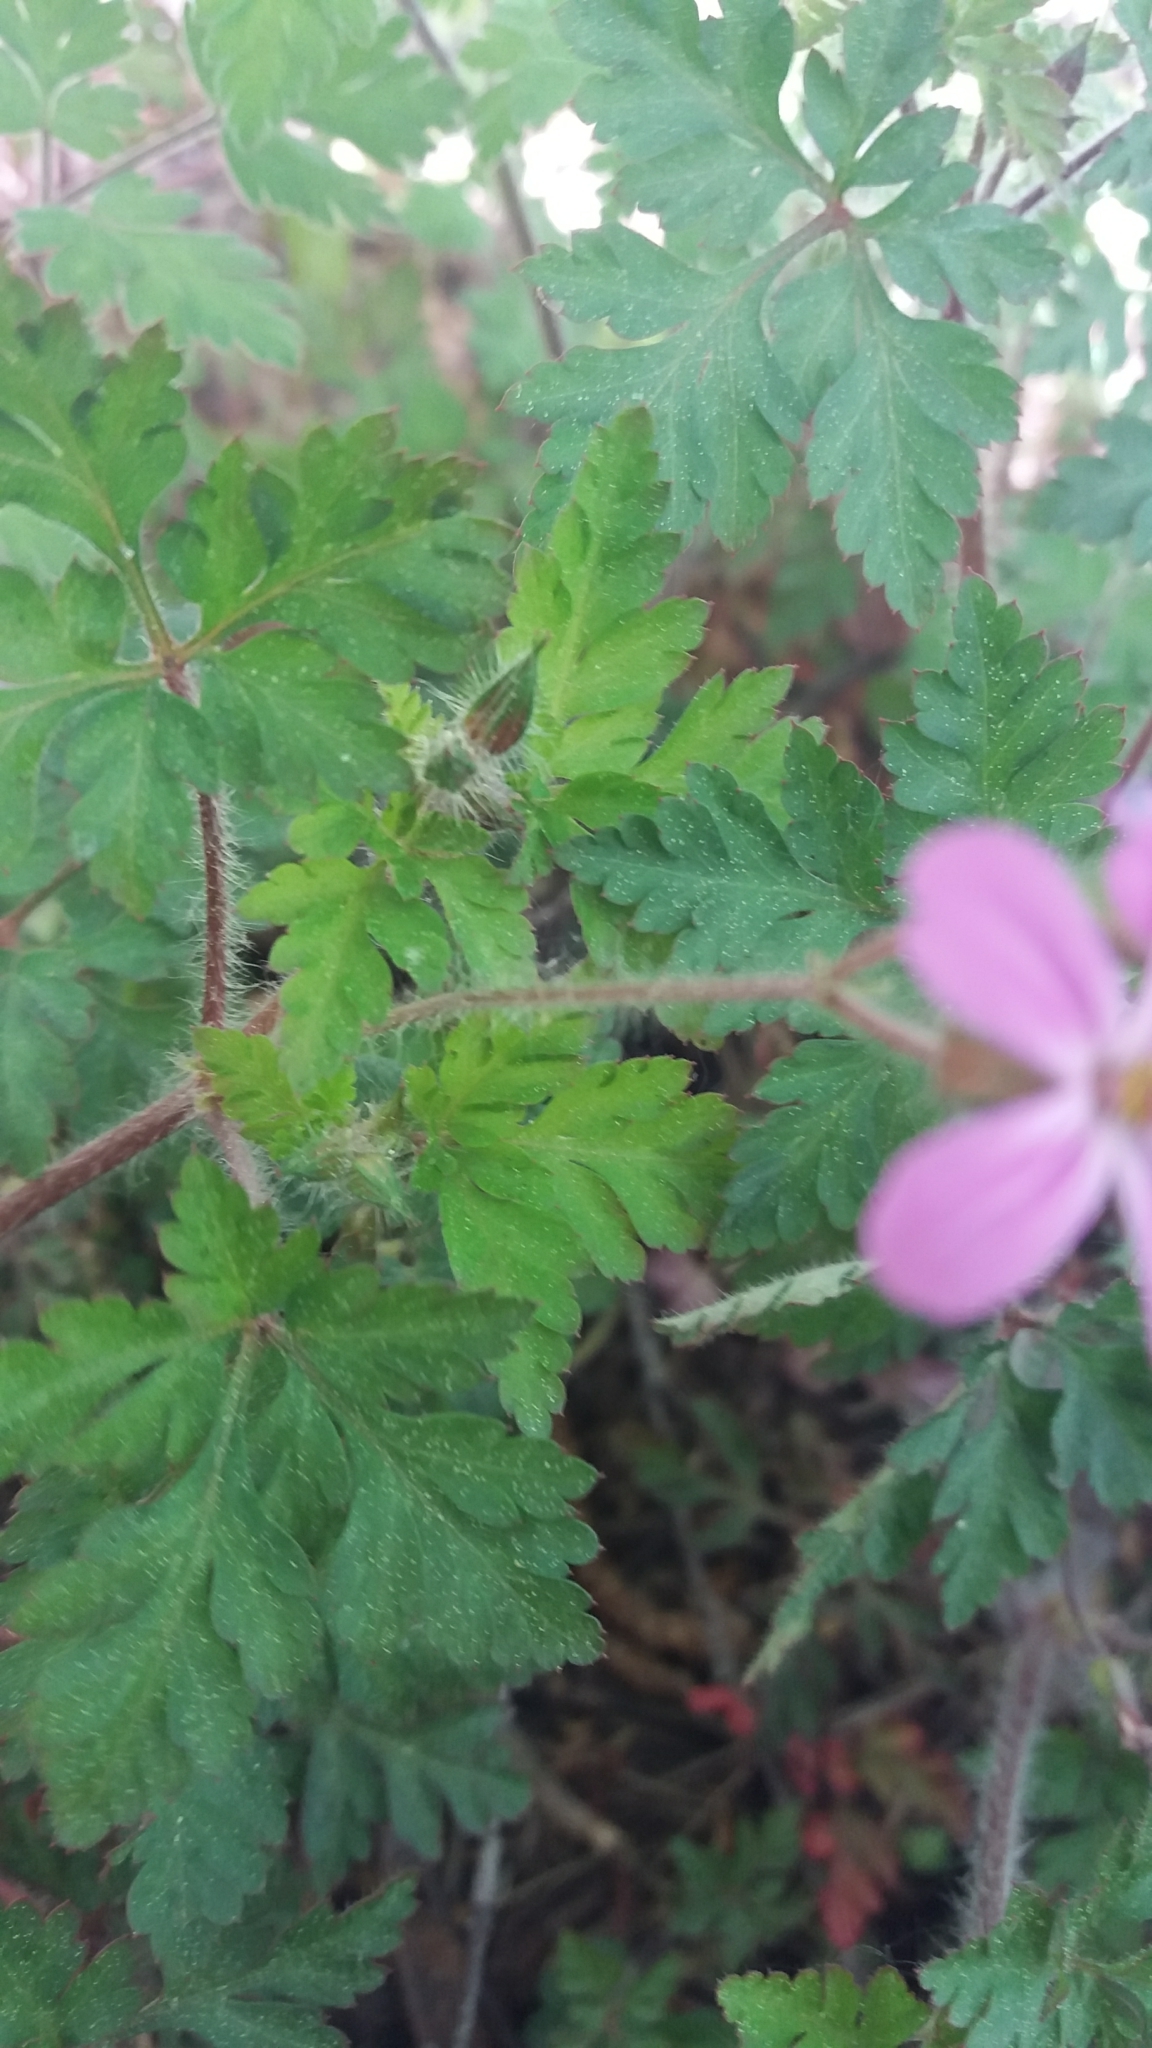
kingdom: Plantae
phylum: Tracheophyta
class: Magnoliopsida
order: Geraniales
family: Geraniaceae
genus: Geranium
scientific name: Geranium robertianum
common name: Herb-robert
